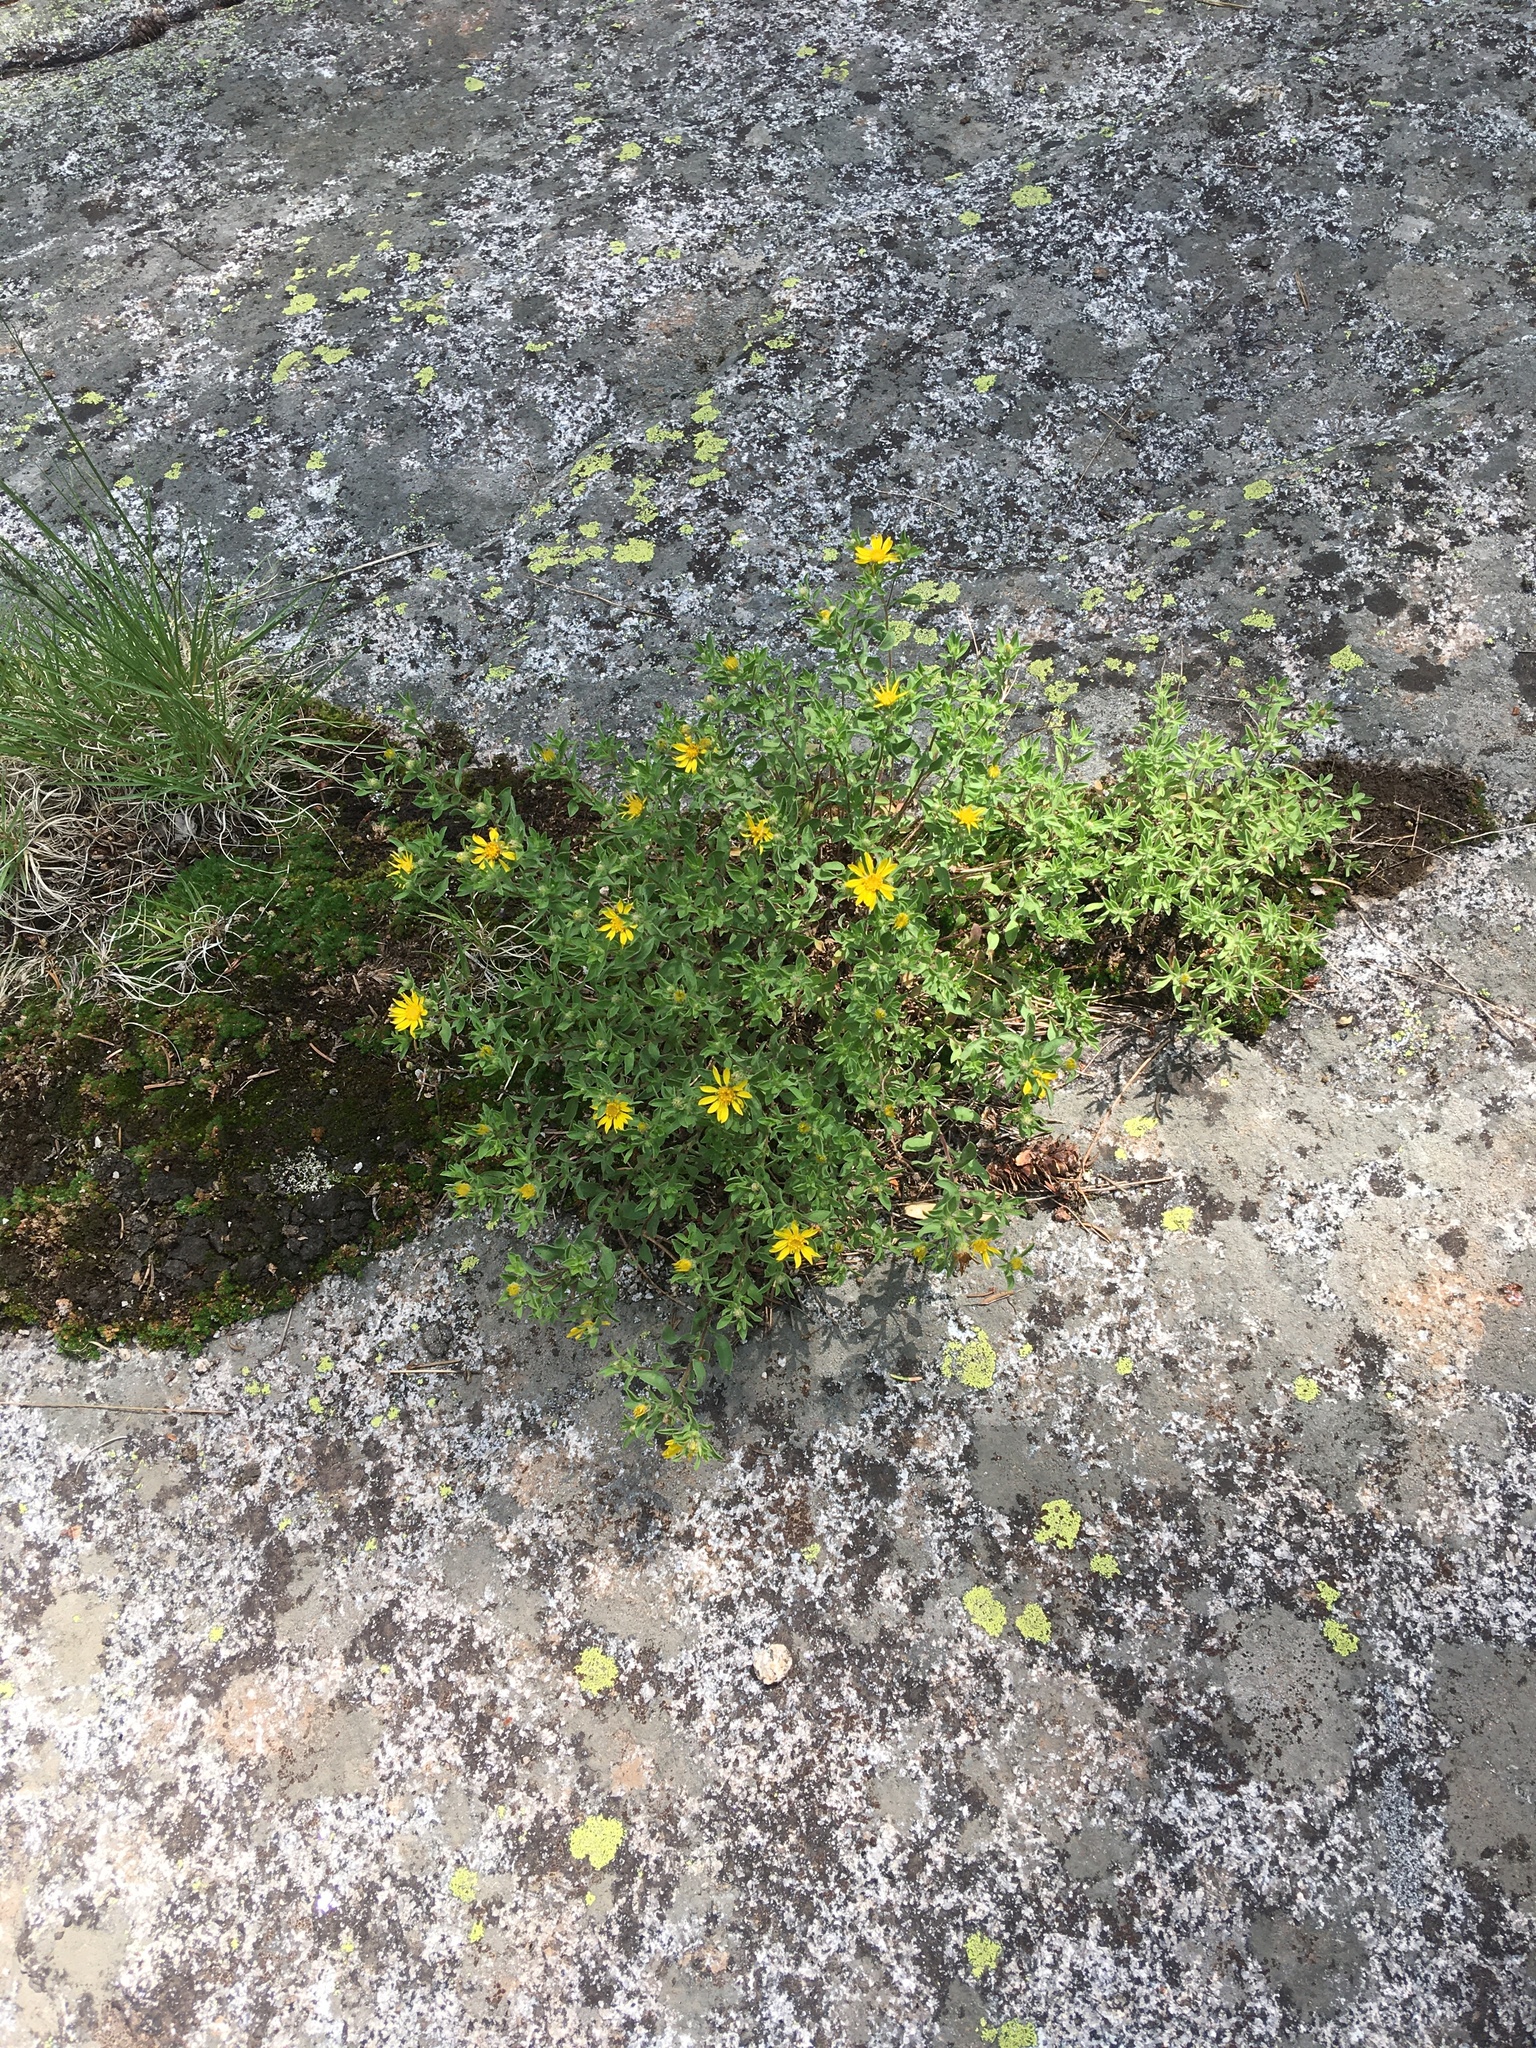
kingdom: Plantae
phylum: Tracheophyta
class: Magnoliopsida
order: Asterales
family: Asteraceae
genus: Heterotheca
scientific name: Heterotheca villosa
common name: Hairy false goldenaster
